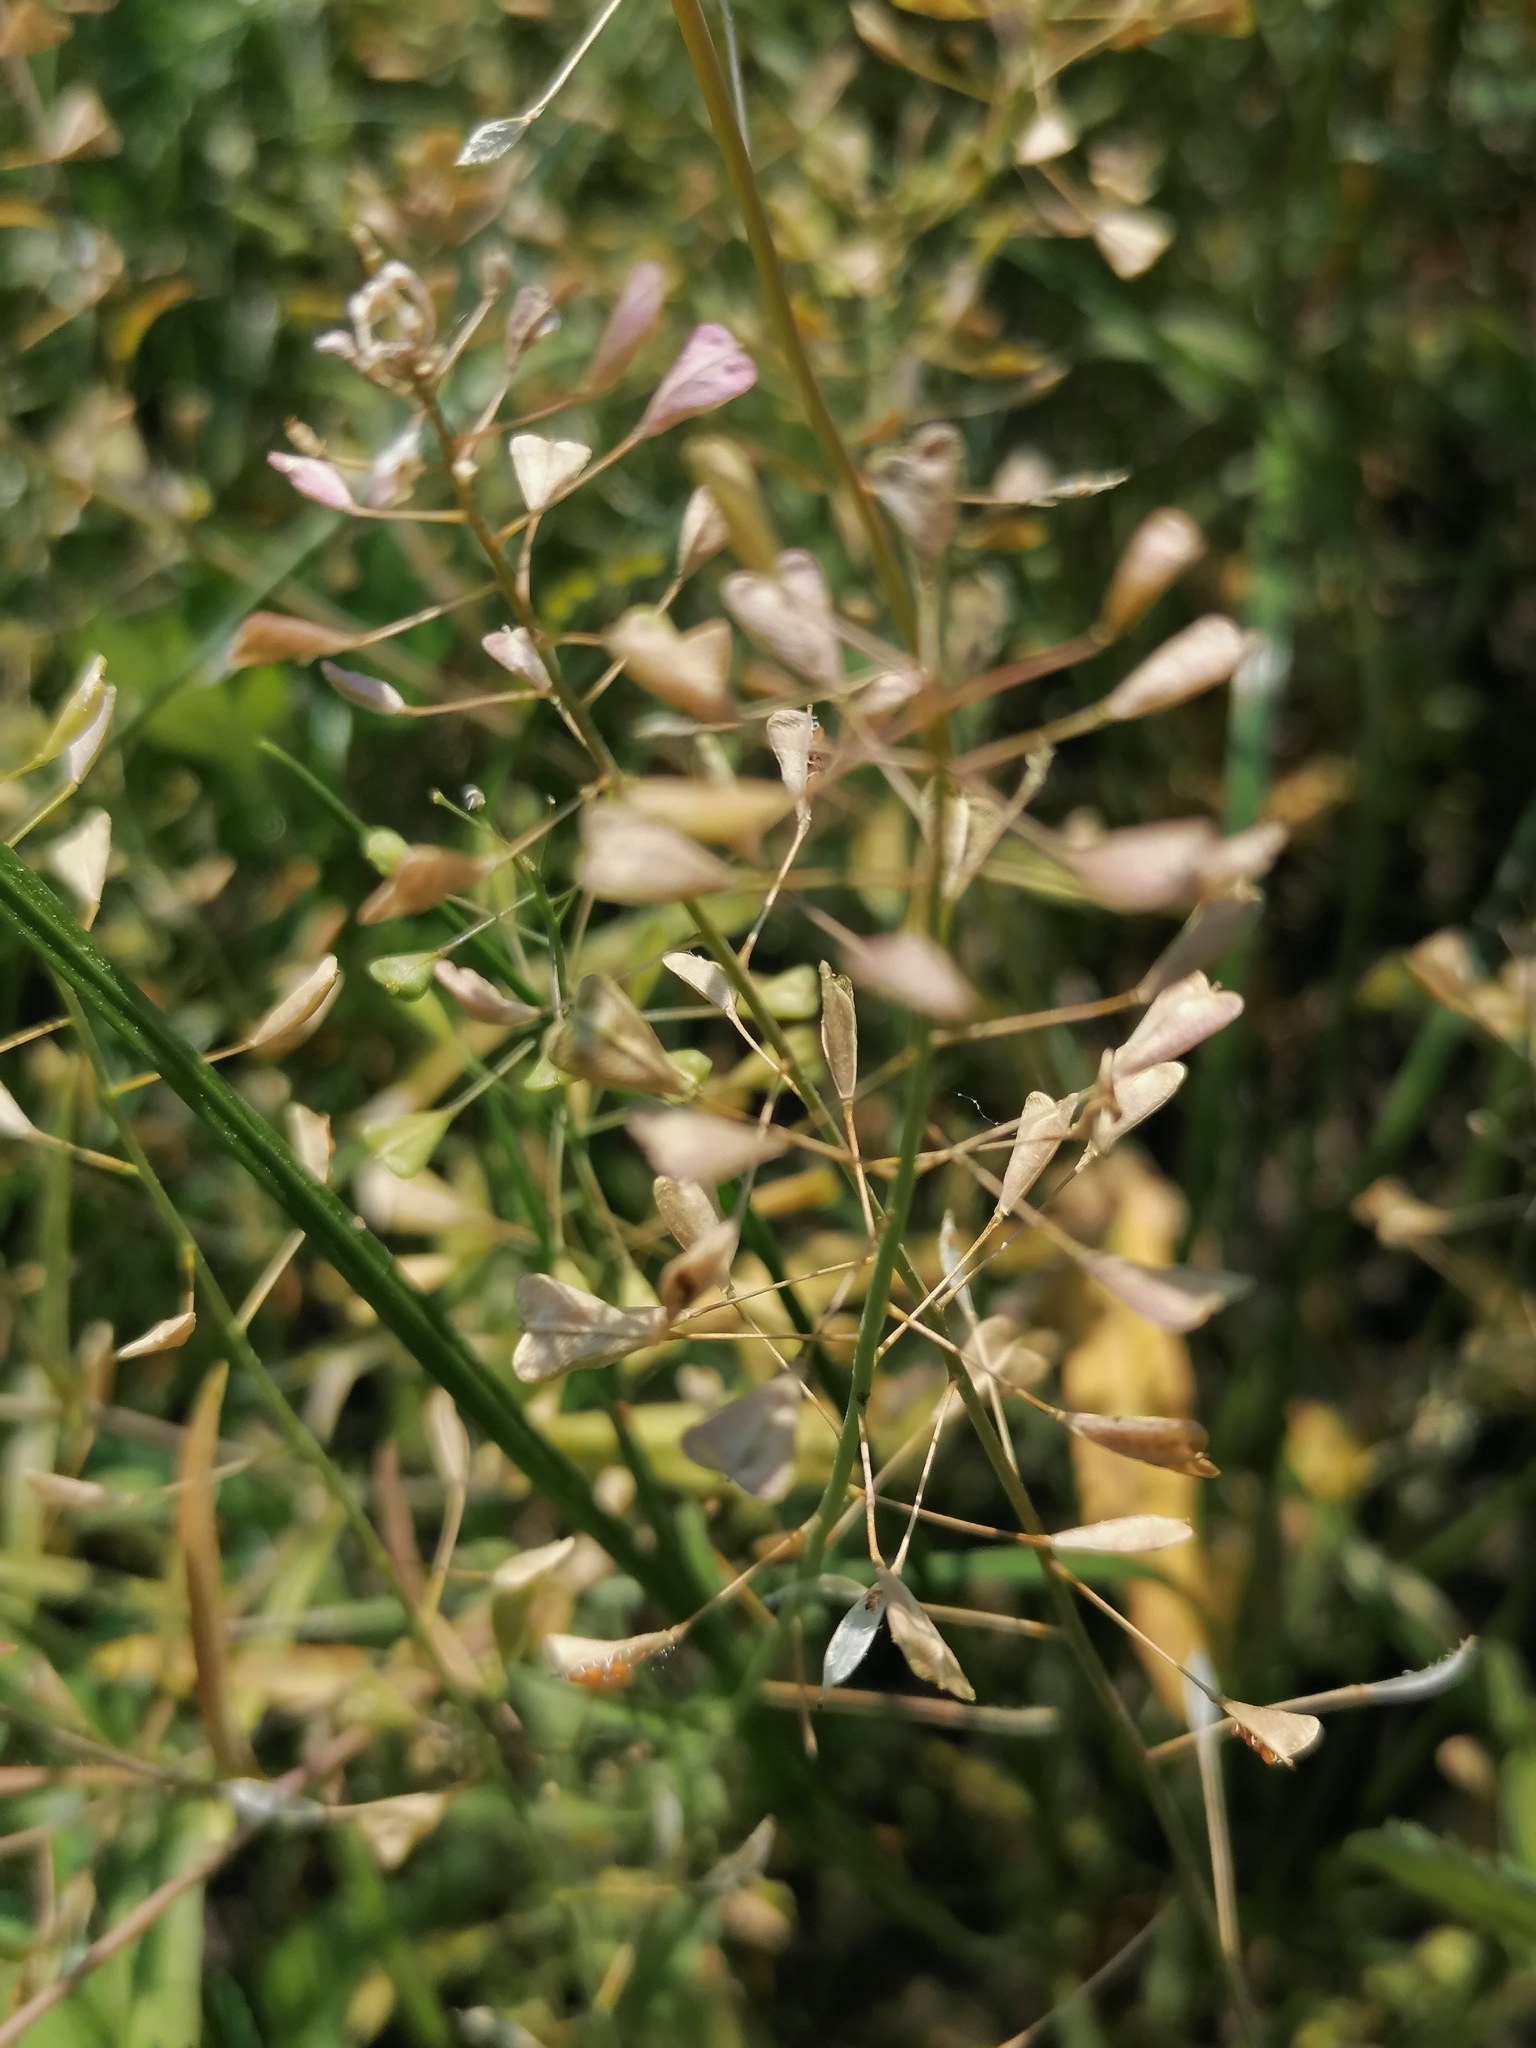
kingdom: Plantae
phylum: Tracheophyta
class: Magnoliopsida
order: Brassicales
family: Brassicaceae
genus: Capsella
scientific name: Capsella bursa-pastoris
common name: Shepherd's purse
